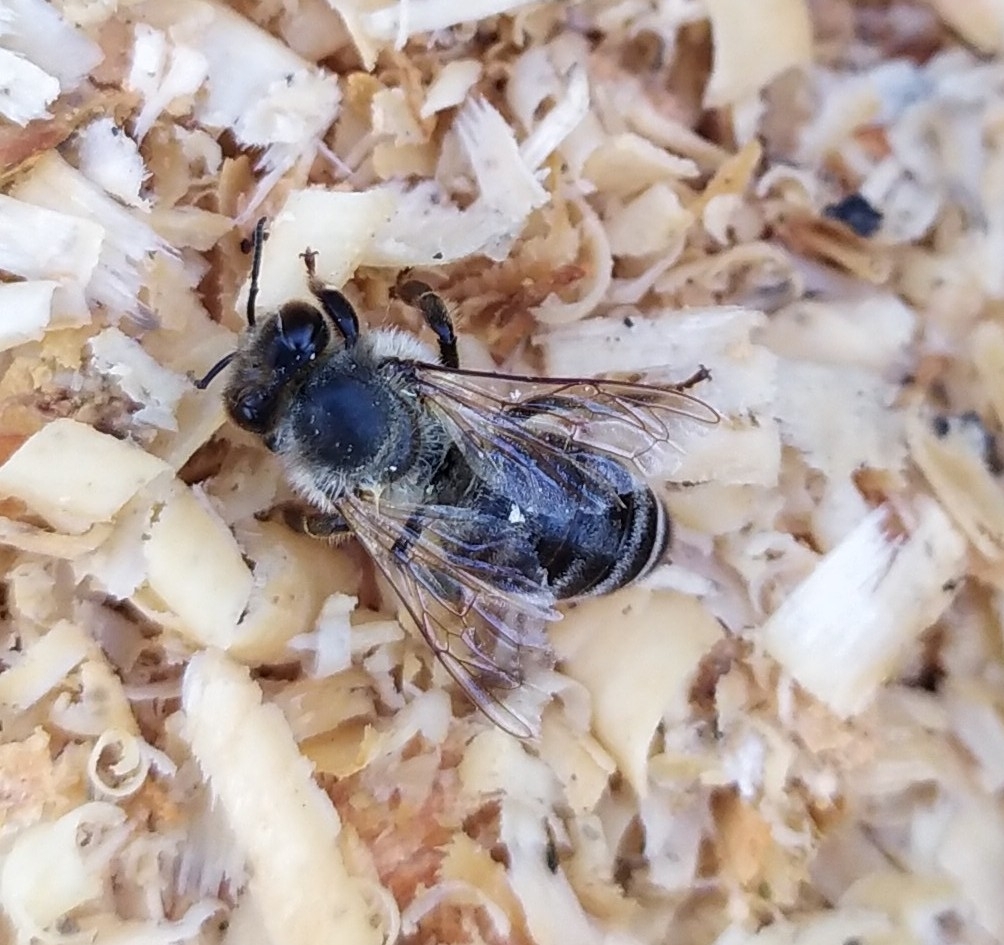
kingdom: Animalia
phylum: Arthropoda
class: Insecta
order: Hymenoptera
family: Apidae
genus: Apis
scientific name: Apis mellifera
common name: Honey bee
